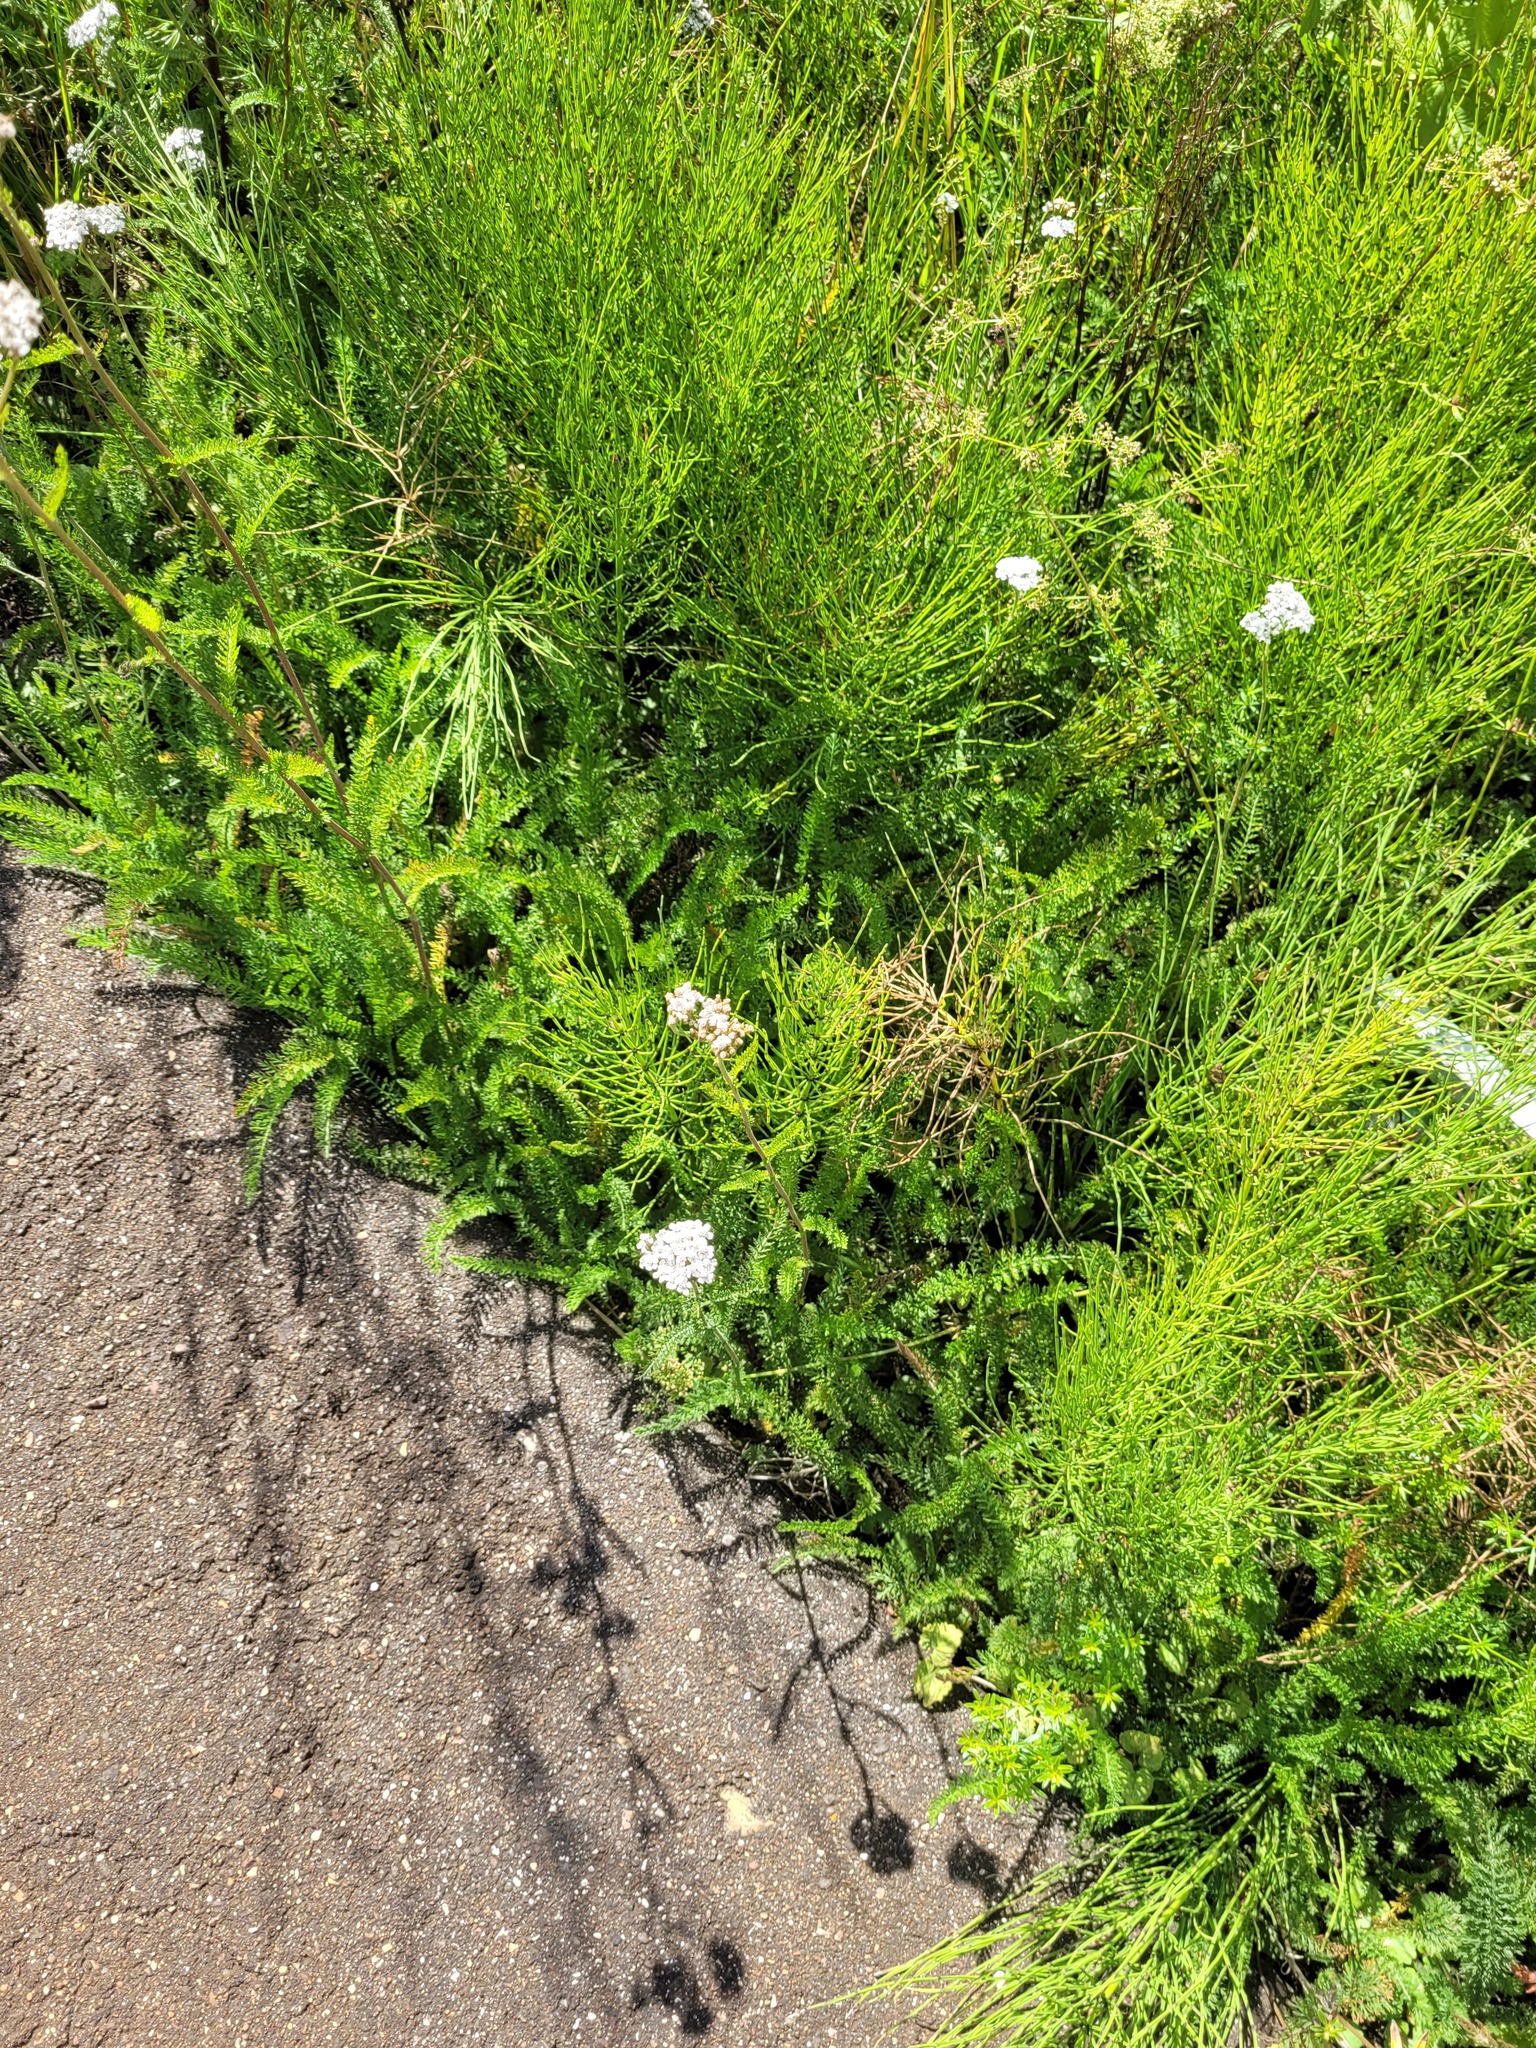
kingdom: Plantae
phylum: Tracheophyta
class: Magnoliopsida
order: Asterales
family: Asteraceae
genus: Achillea
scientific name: Achillea millefolium
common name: Yarrow
